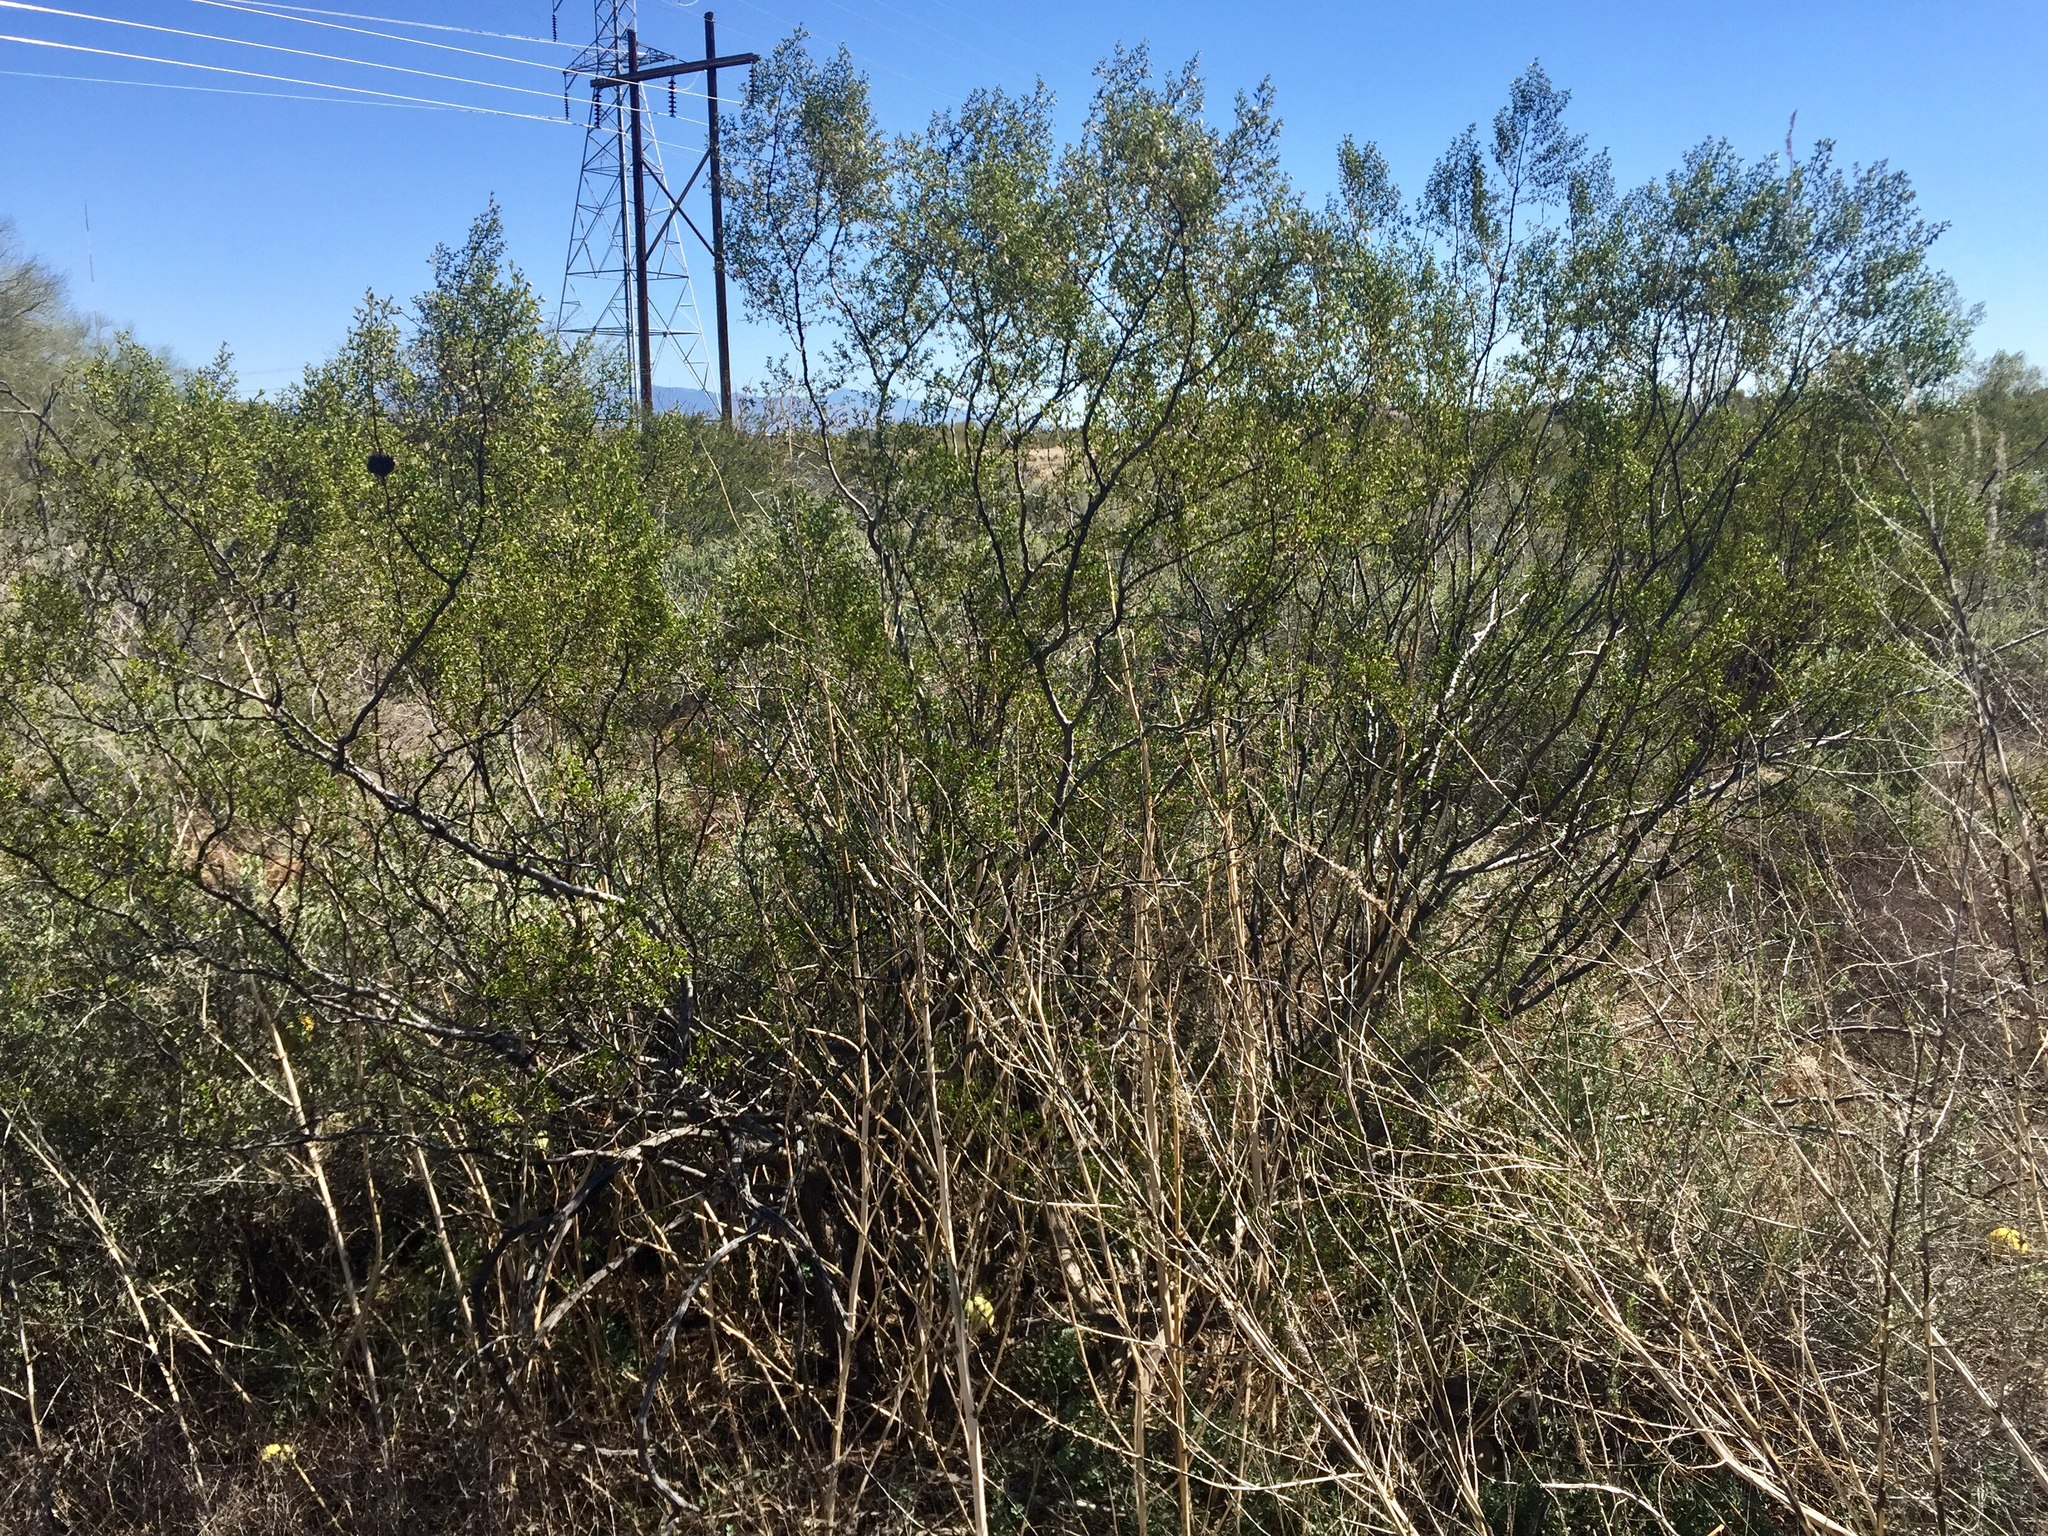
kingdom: Plantae
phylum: Tracheophyta
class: Magnoliopsida
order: Zygophyllales
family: Zygophyllaceae
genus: Larrea
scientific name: Larrea tridentata
